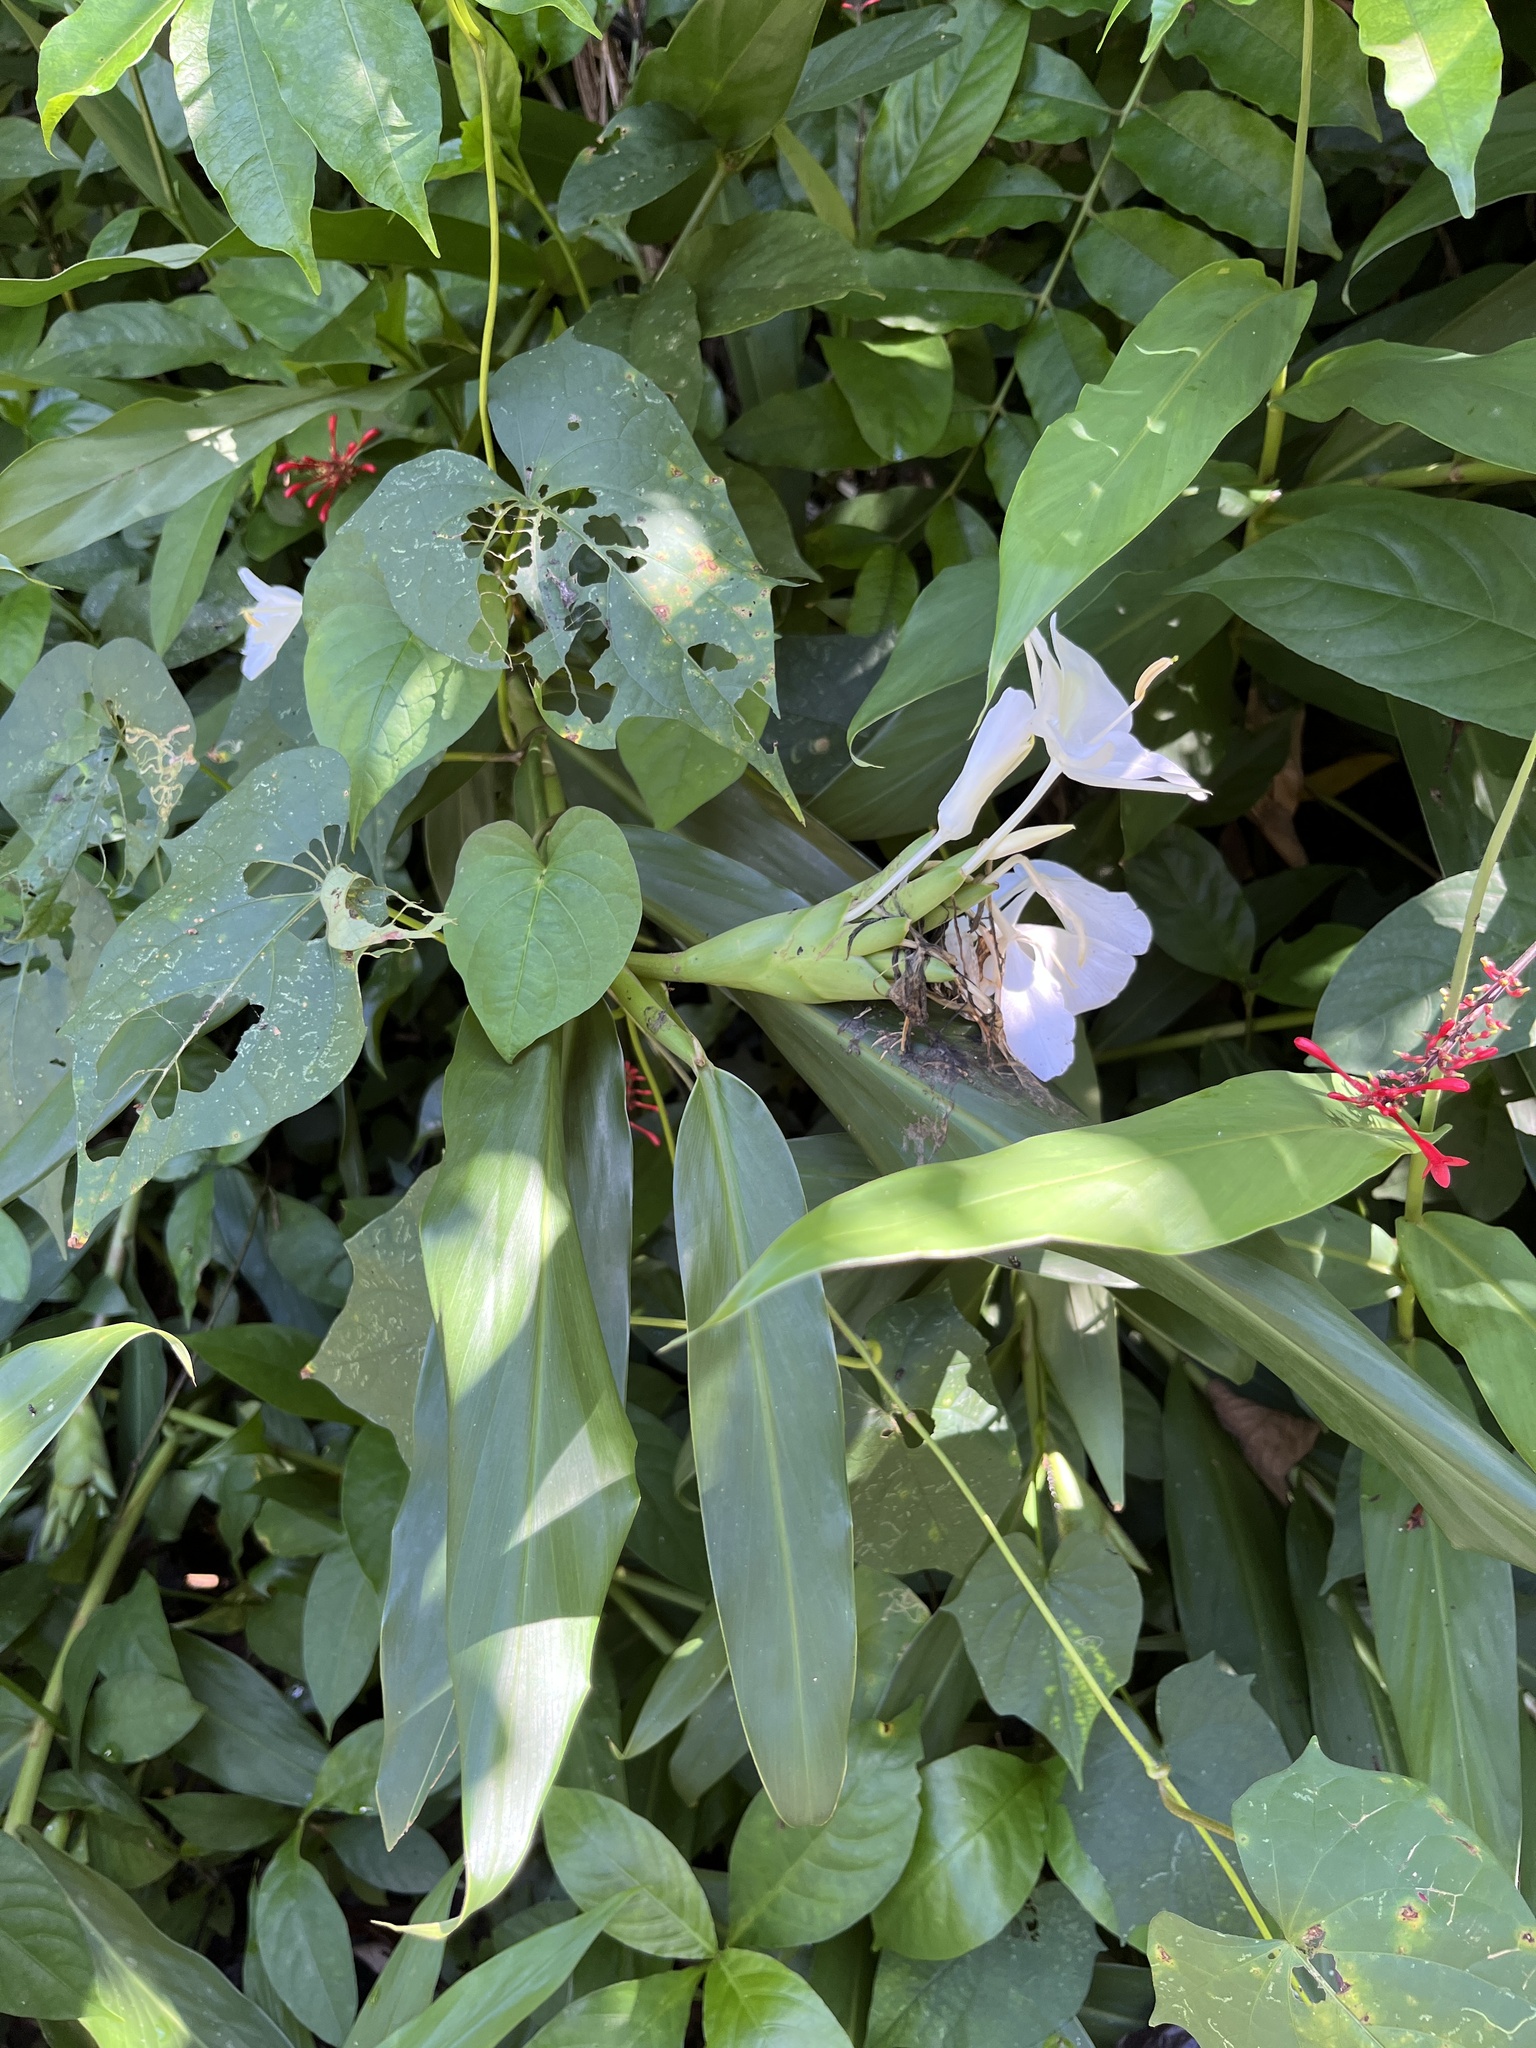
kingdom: Plantae
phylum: Tracheophyta
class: Liliopsida
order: Zingiberales
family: Zingiberaceae
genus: Hedychium
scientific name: Hedychium coronarium
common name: White garland-lily
